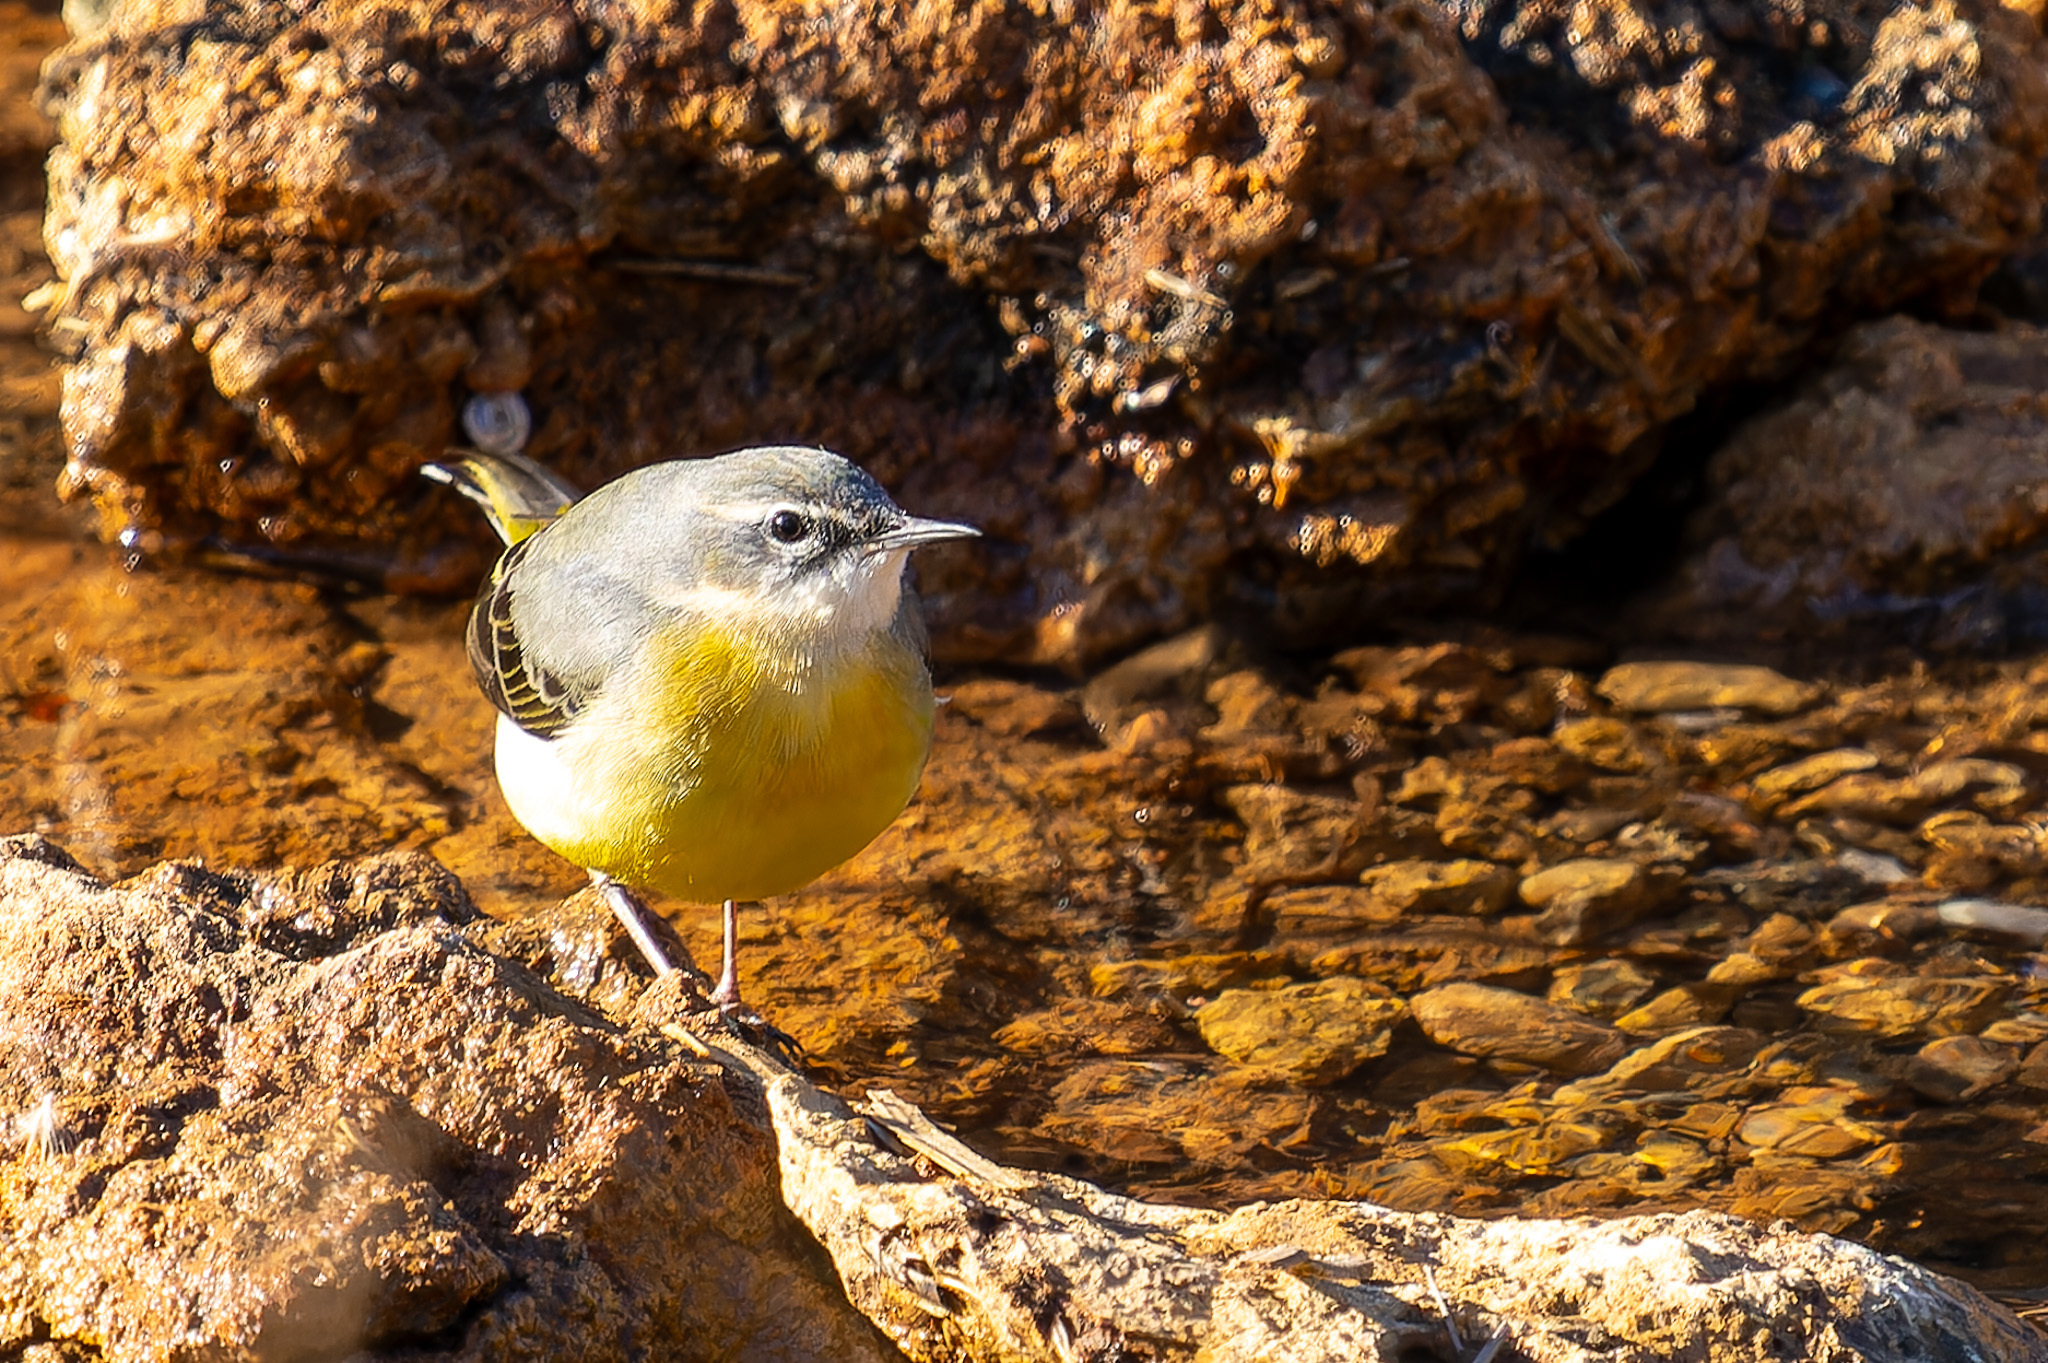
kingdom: Animalia
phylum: Chordata
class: Aves
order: Passeriformes
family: Motacillidae
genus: Motacilla
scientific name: Motacilla cinerea
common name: Grey wagtail
